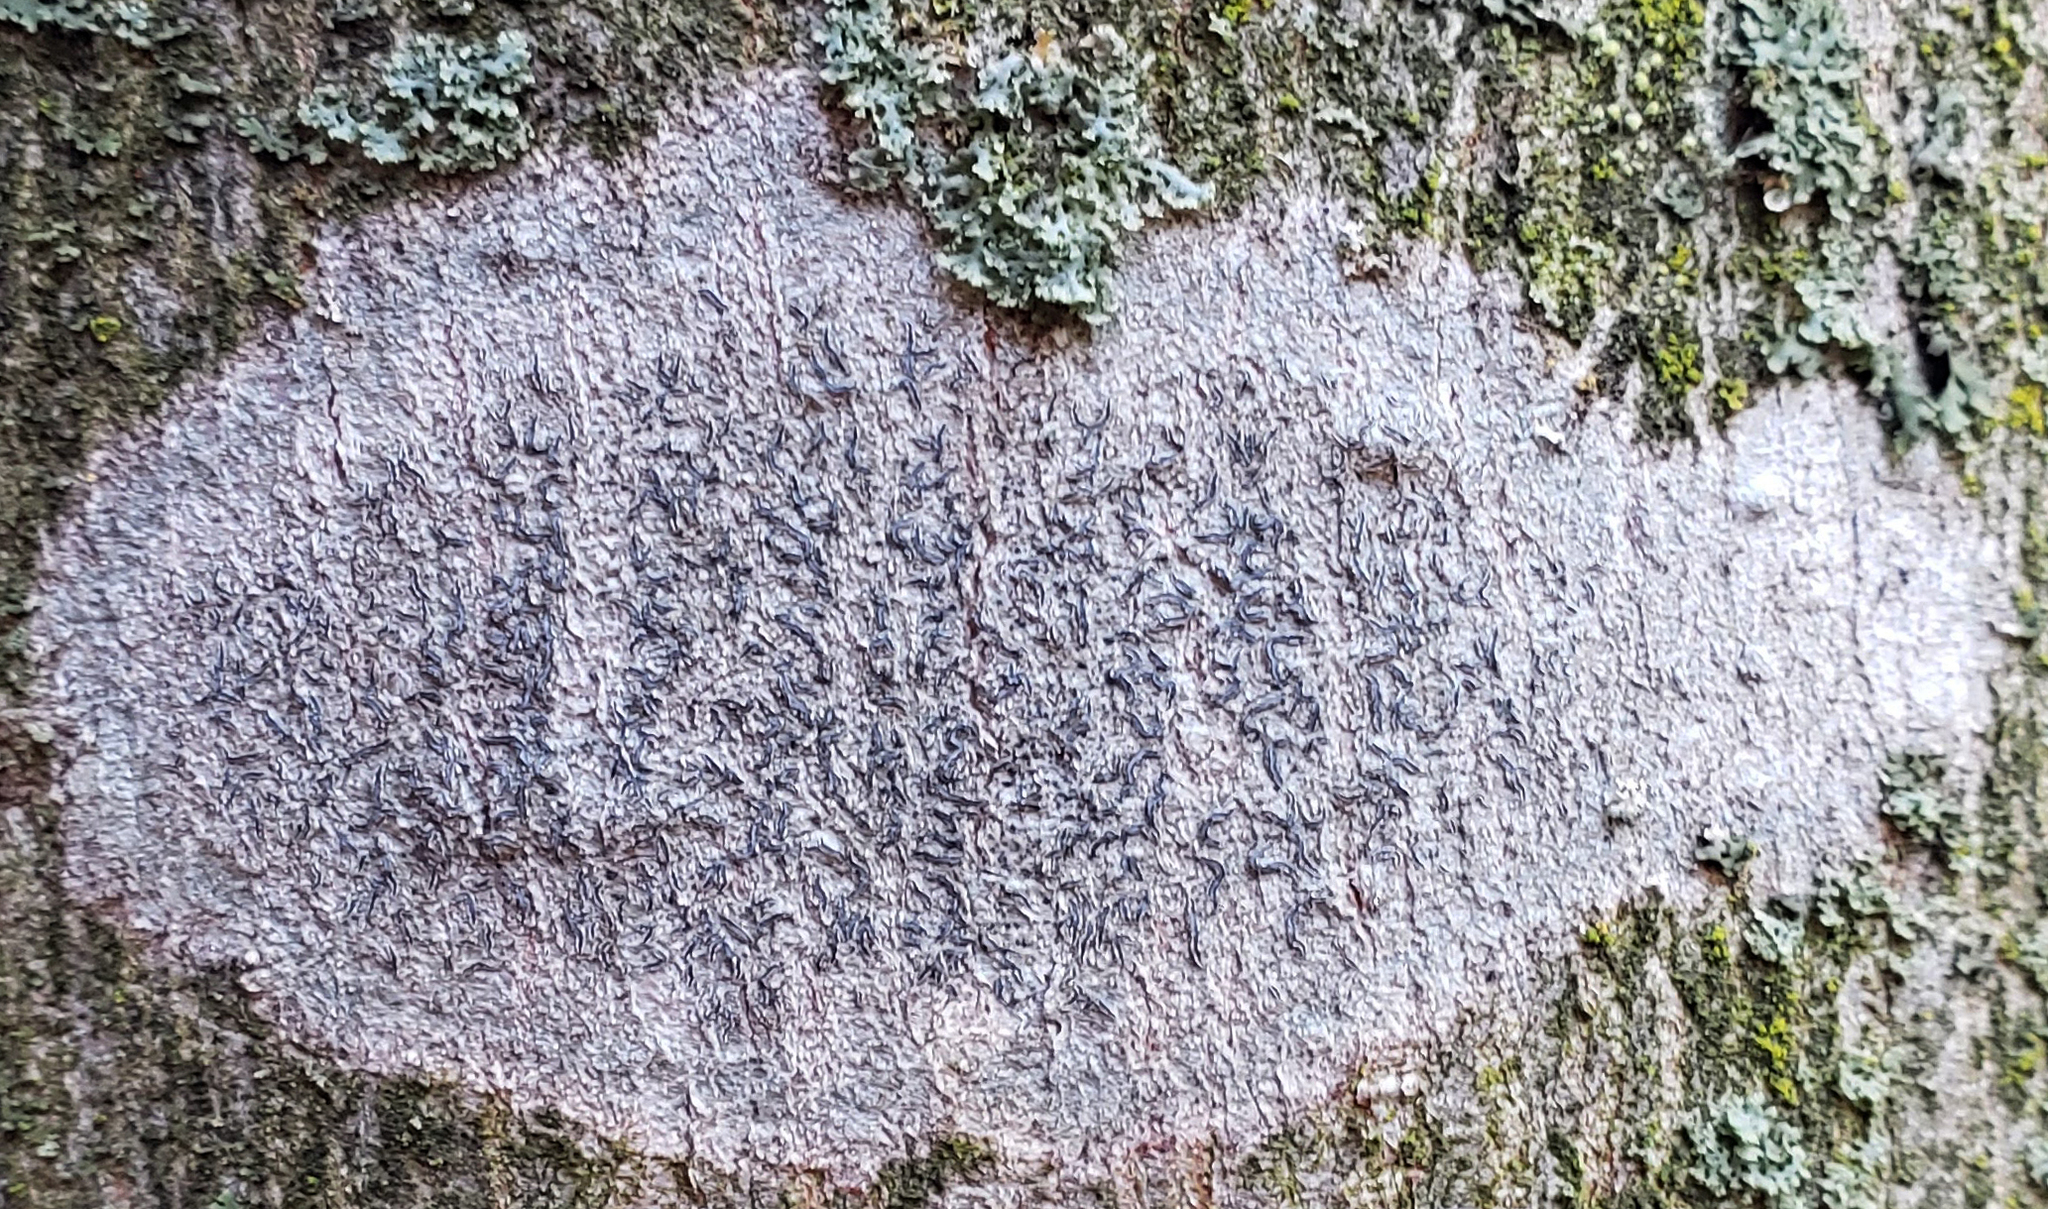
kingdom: Fungi
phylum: Ascomycota
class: Lecanoromycetes
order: Ostropales
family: Graphidaceae
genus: Graphis
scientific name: Graphis scripta
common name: Script lichen
